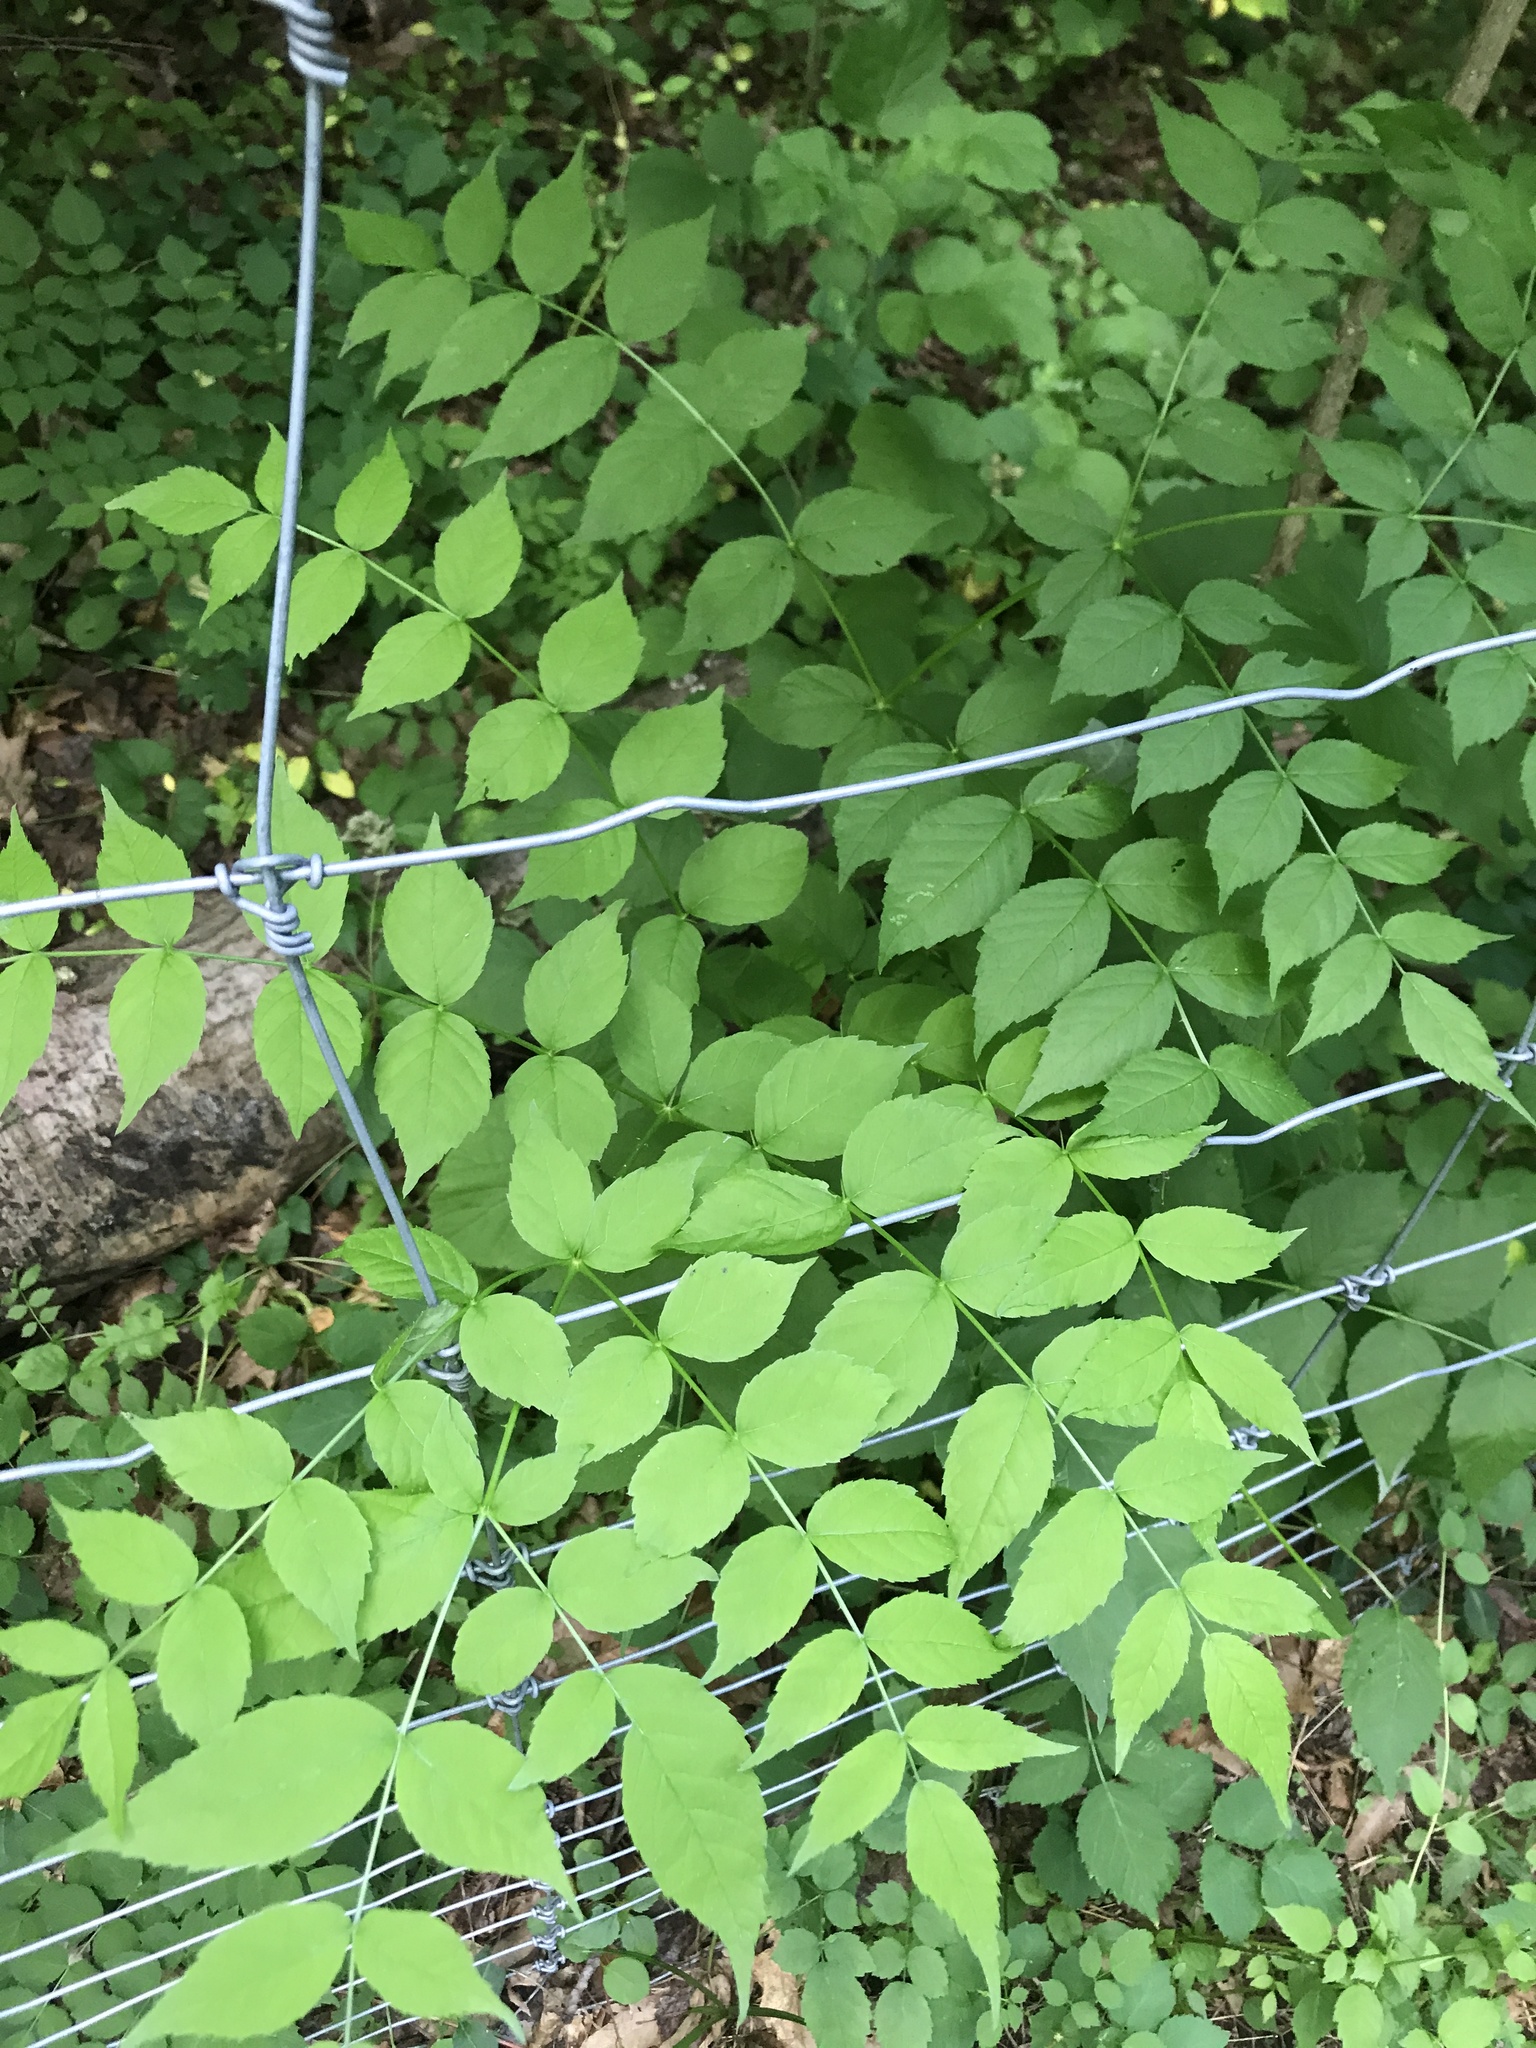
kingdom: Plantae
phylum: Tracheophyta
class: Magnoliopsida
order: Apiales
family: Araliaceae
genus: Aralia
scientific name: Aralia elata
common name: Japanese angelica-tree
